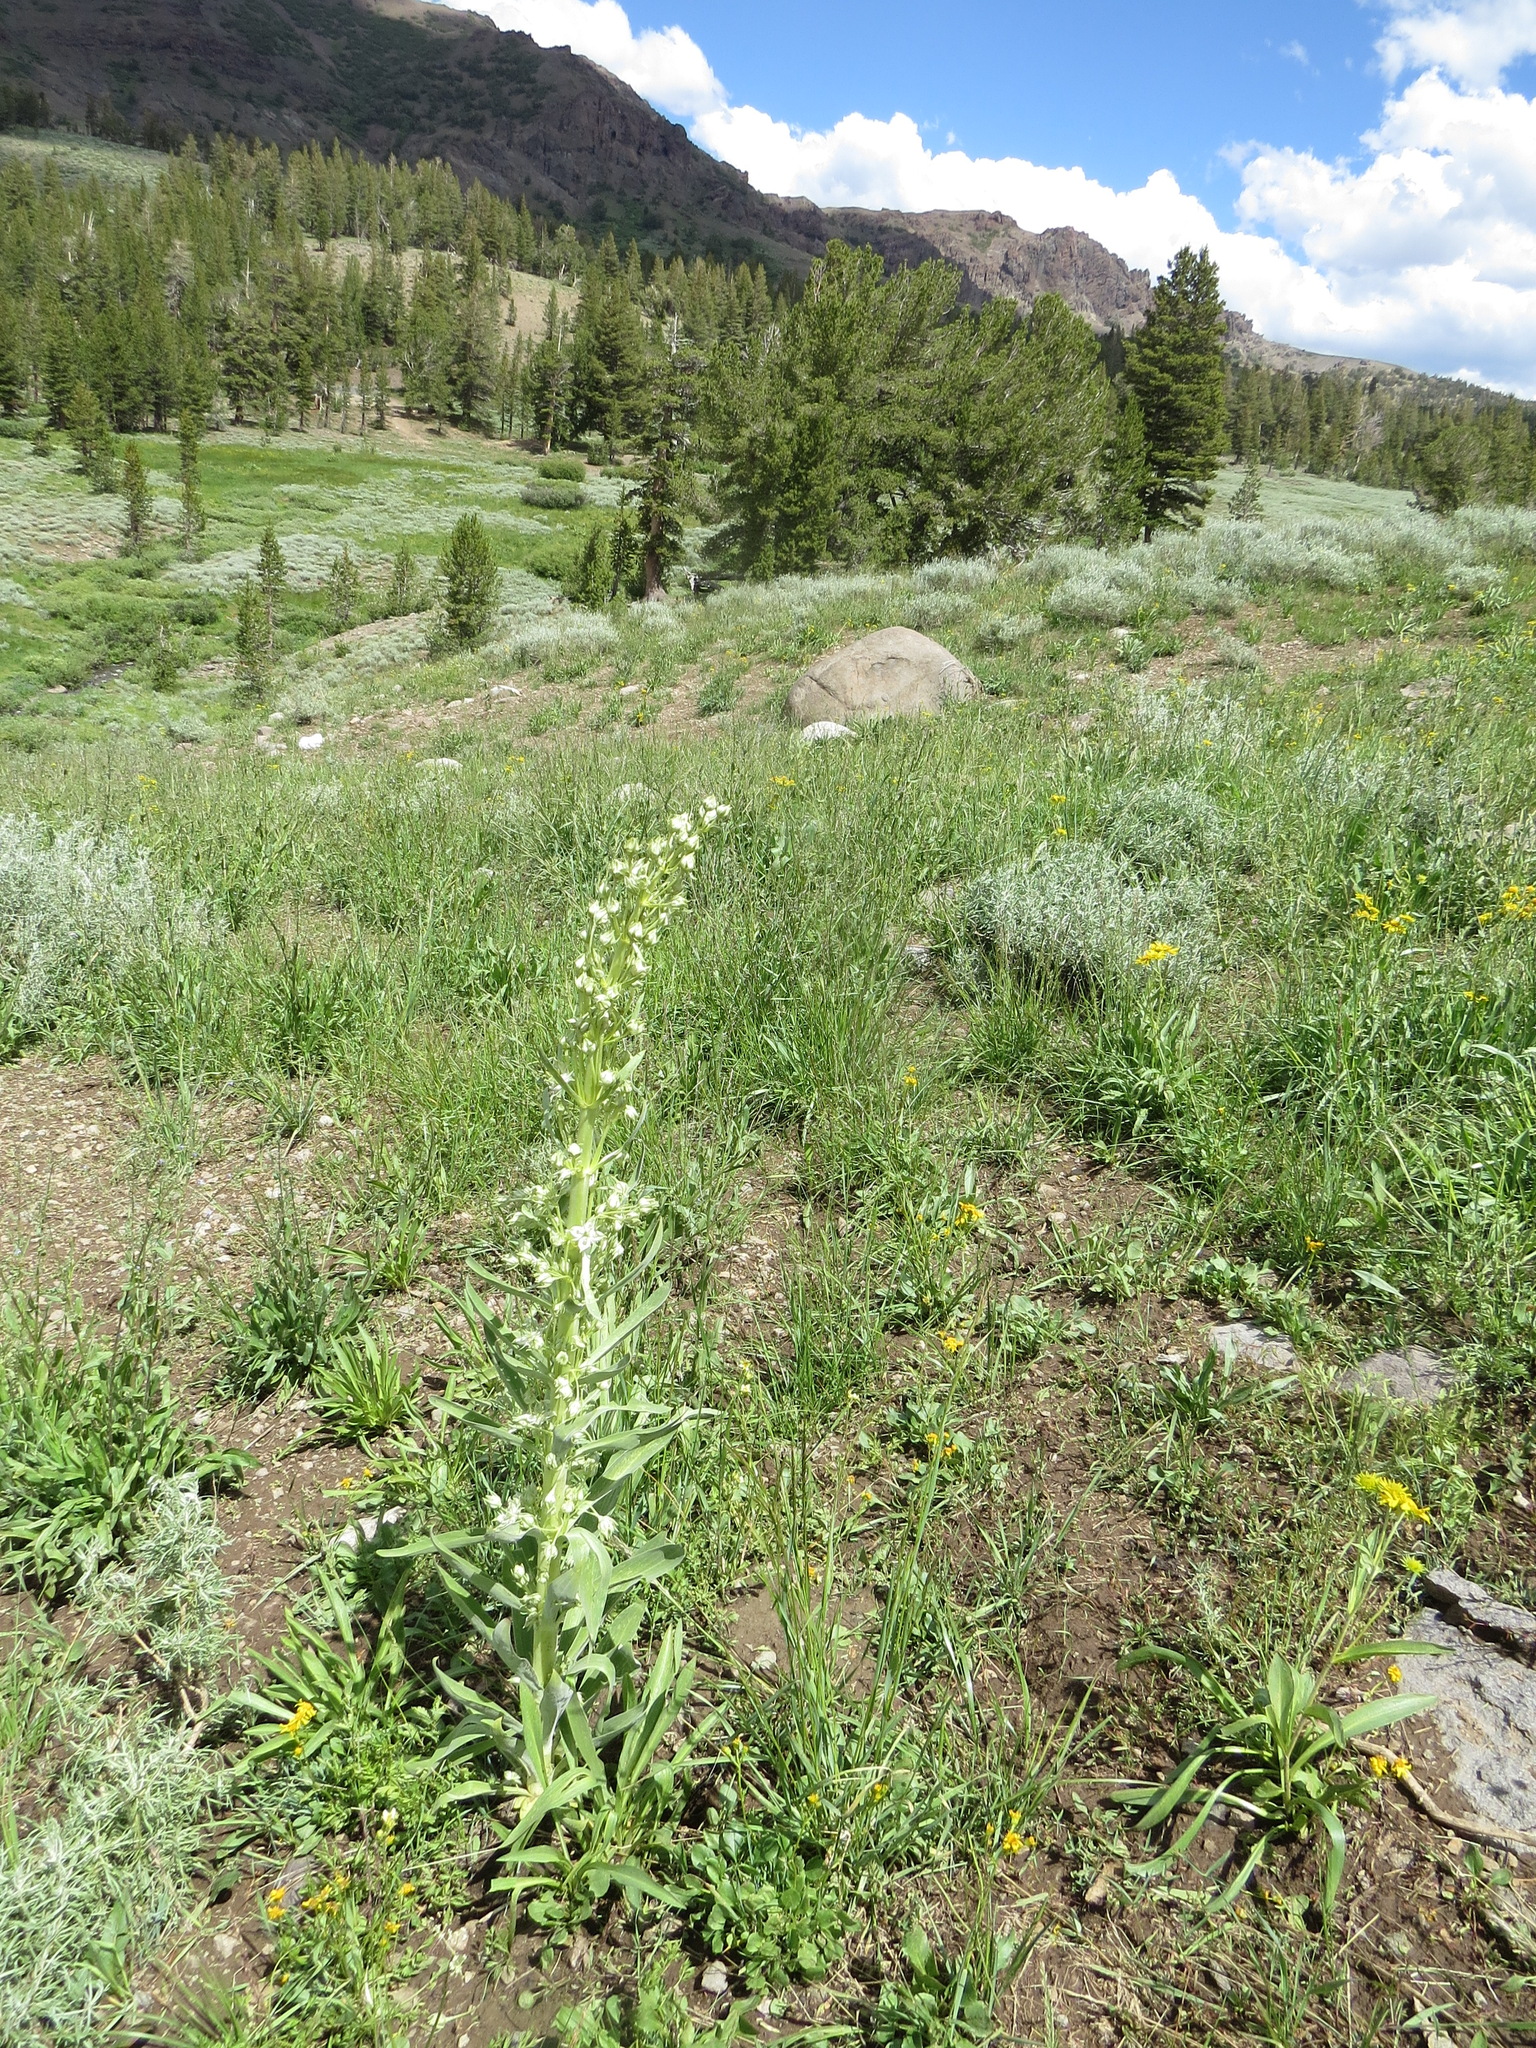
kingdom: Plantae
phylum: Tracheophyta
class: Magnoliopsida
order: Gentianales
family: Gentianaceae
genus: Frasera
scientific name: Frasera speciosa
